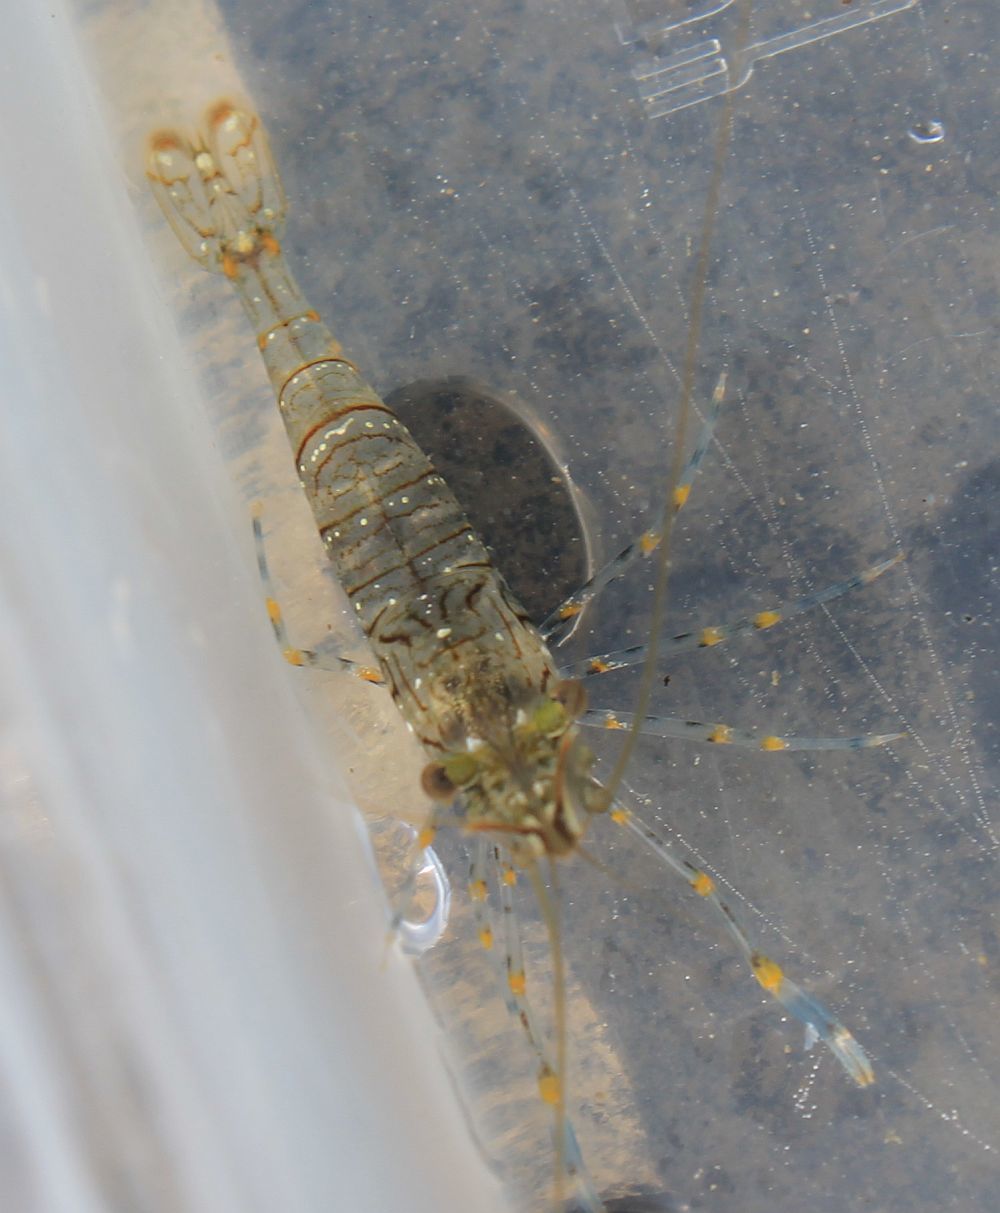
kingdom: Animalia
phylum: Arthropoda
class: Malacostraca
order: Decapoda
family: Palaemonidae
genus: Palaemon
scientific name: Palaemon elegans
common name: Grass prawm
